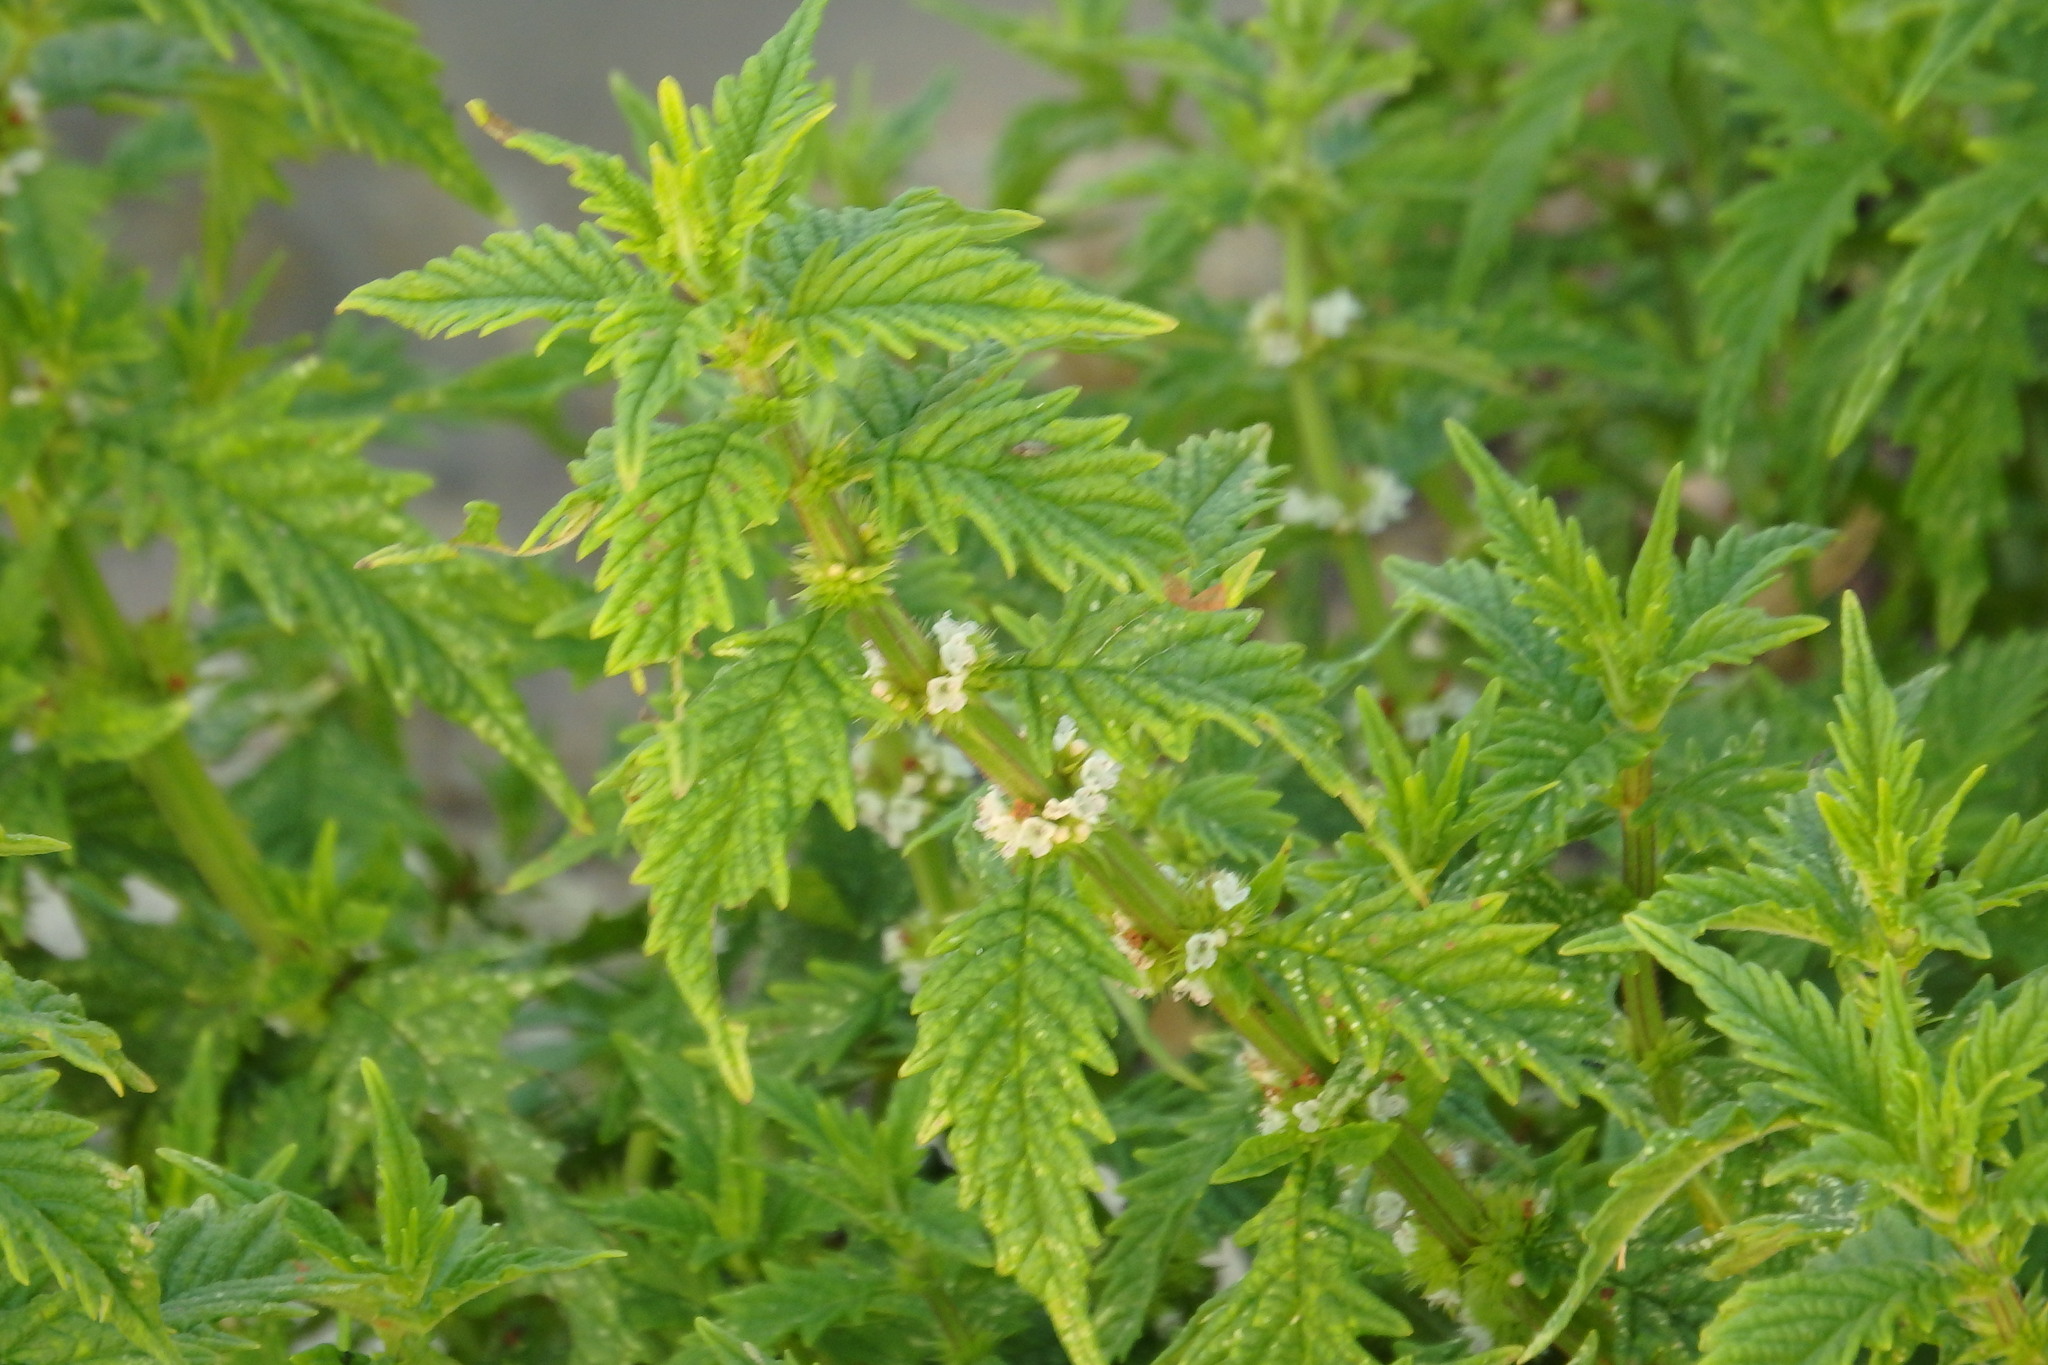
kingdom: Plantae
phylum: Tracheophyta
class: Magnoliopsida
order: Lamiales
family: Lamiaceae
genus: Lycopus
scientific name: Lycopus europaeus
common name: European bugleweed
